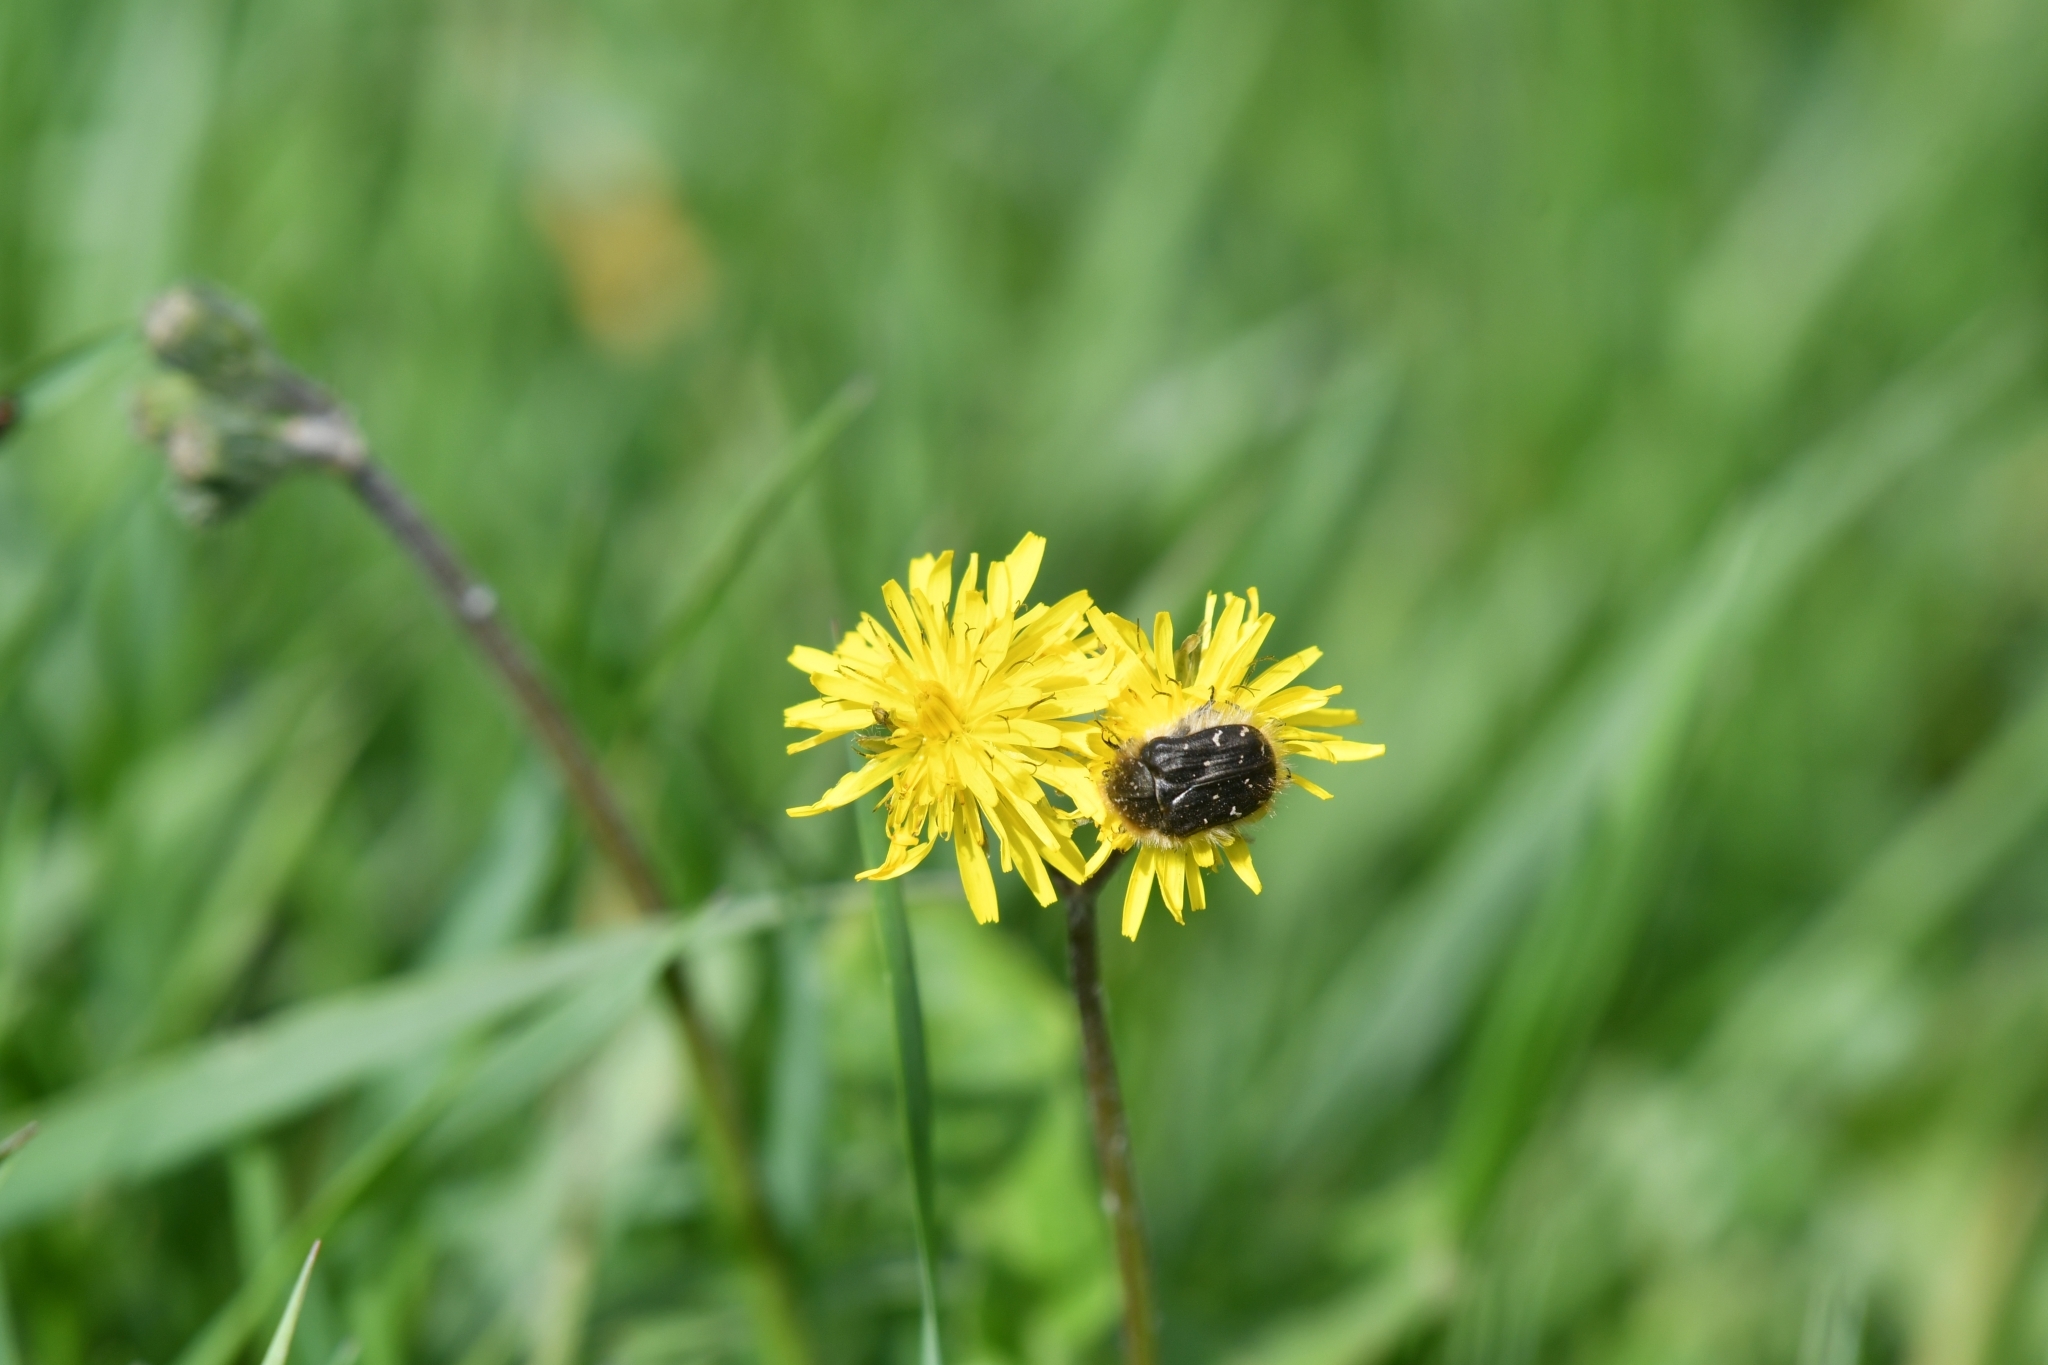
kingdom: Animalia
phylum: Arthropoda
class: Insecta
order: Coleoptera
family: Scarabaeidae
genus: Tropinota
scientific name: Tropinota hirta
